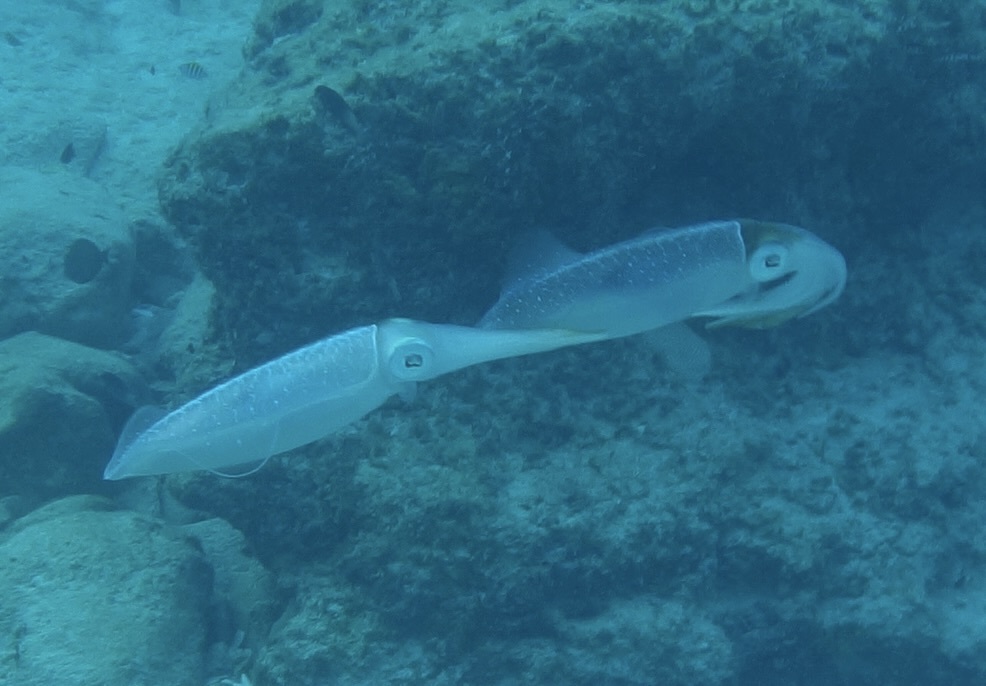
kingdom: Animalia
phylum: Mollusca
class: Cephalopoda
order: Myopsida
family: Loliginidae
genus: Sepioteuthis
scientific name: Sepioteuthis sepioidea
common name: Caribbean reef squid
